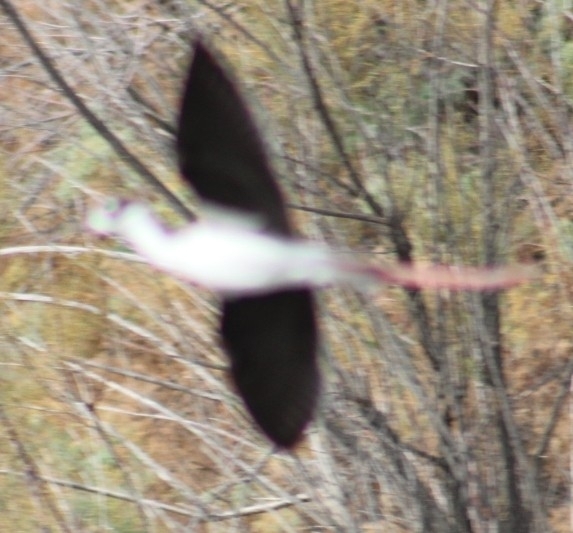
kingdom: Animalia
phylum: Chordata
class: Aves
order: Charadriiformes
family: Recurvirostridae
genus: Himantopus
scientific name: Himantopus mexicanus
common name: Black-necked stilt
